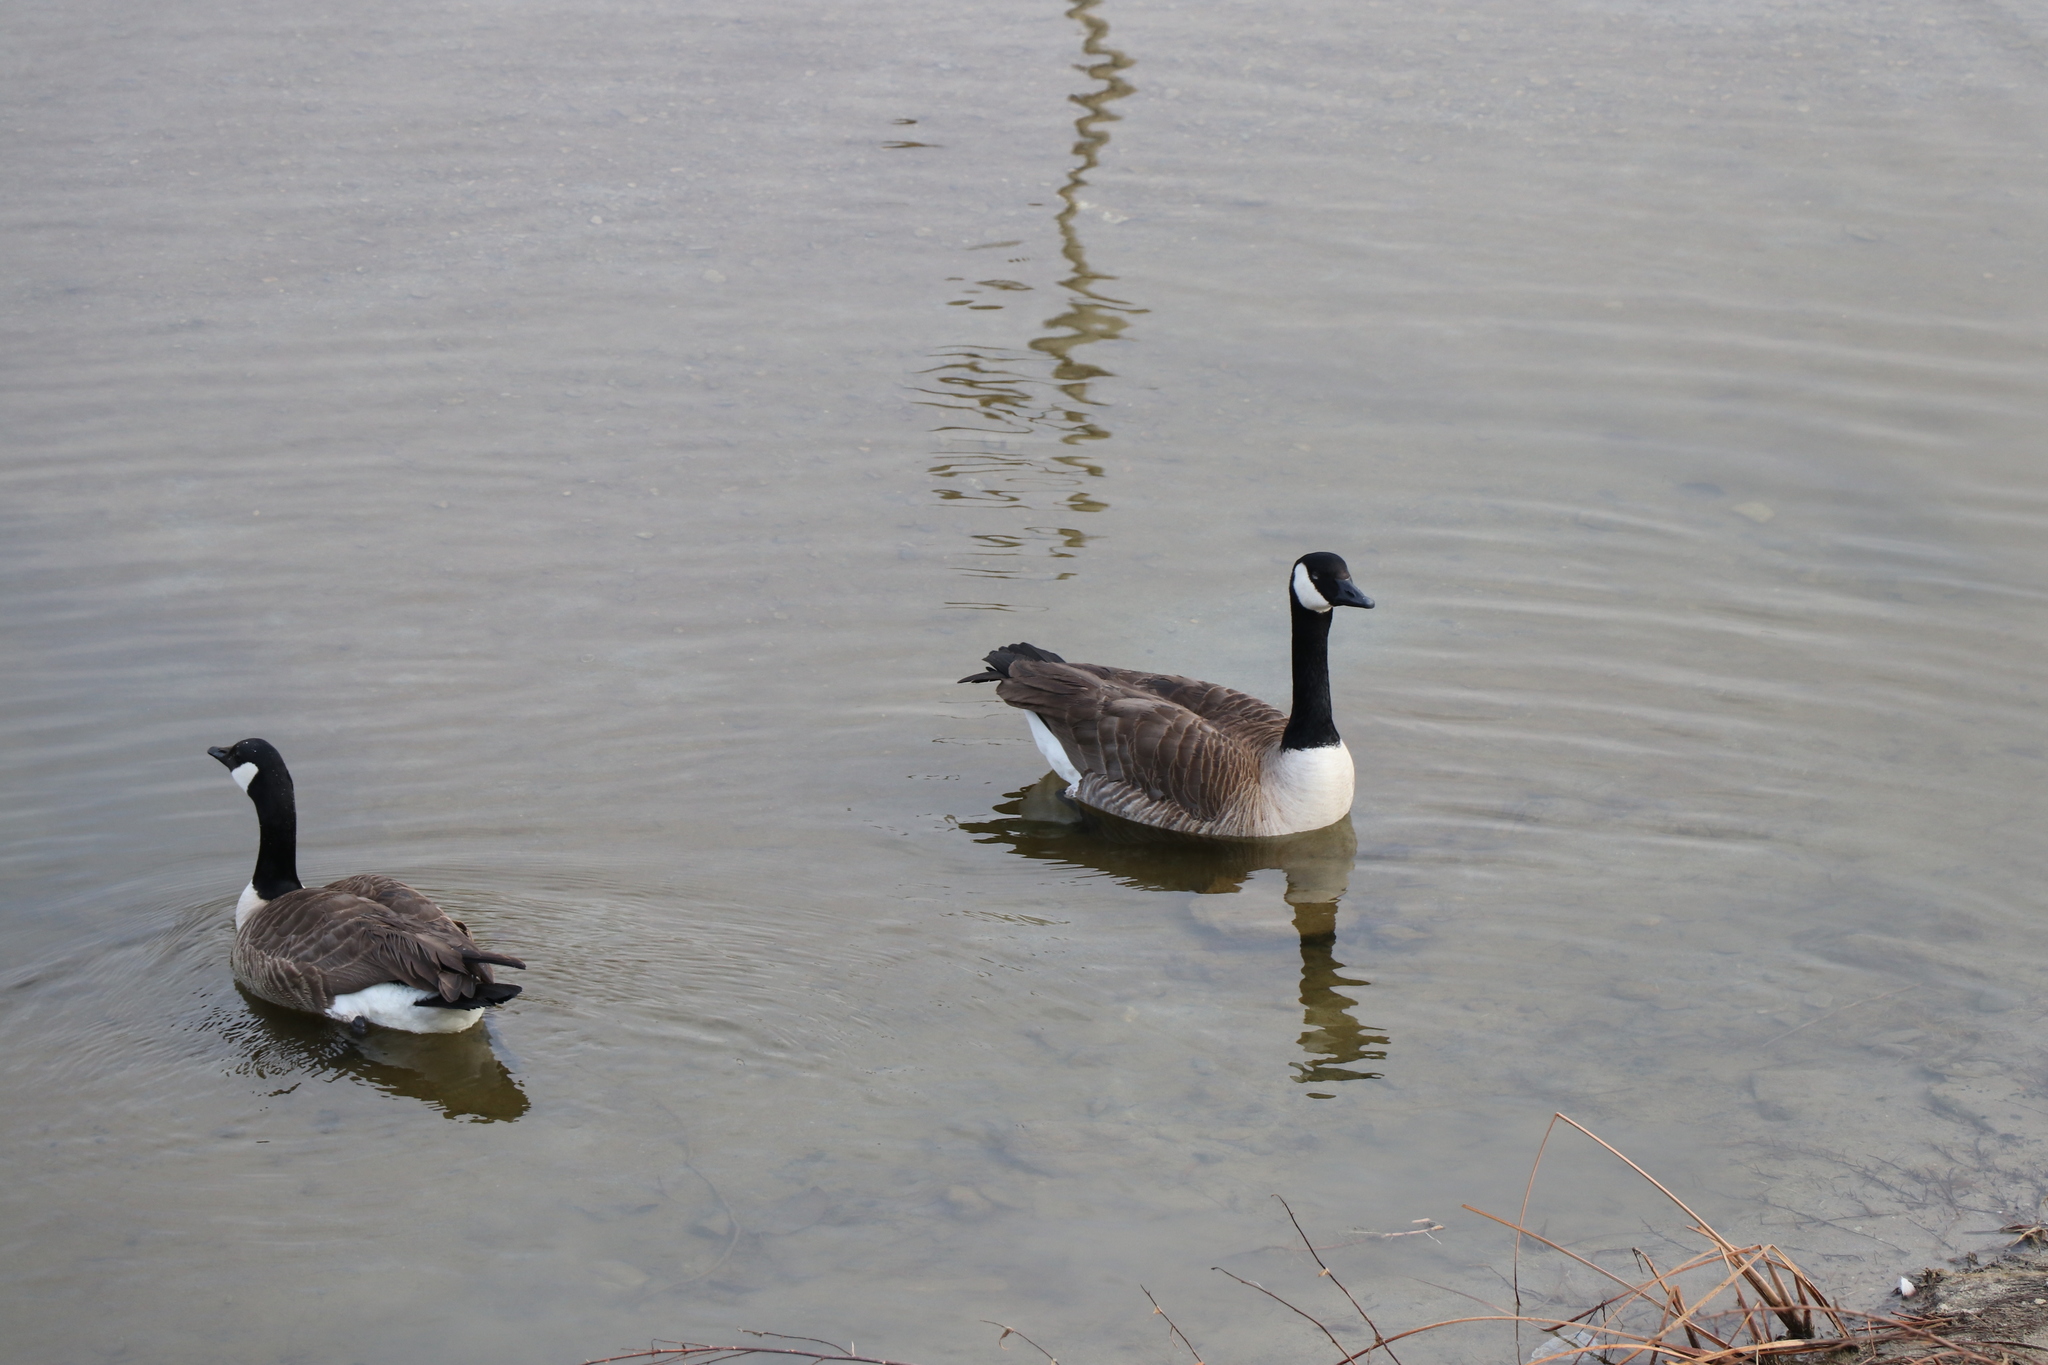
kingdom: Animalia
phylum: Chordata
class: Aves
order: Anseriformes
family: Anatidae
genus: Branta
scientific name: Branta canadensis
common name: Canada goose
